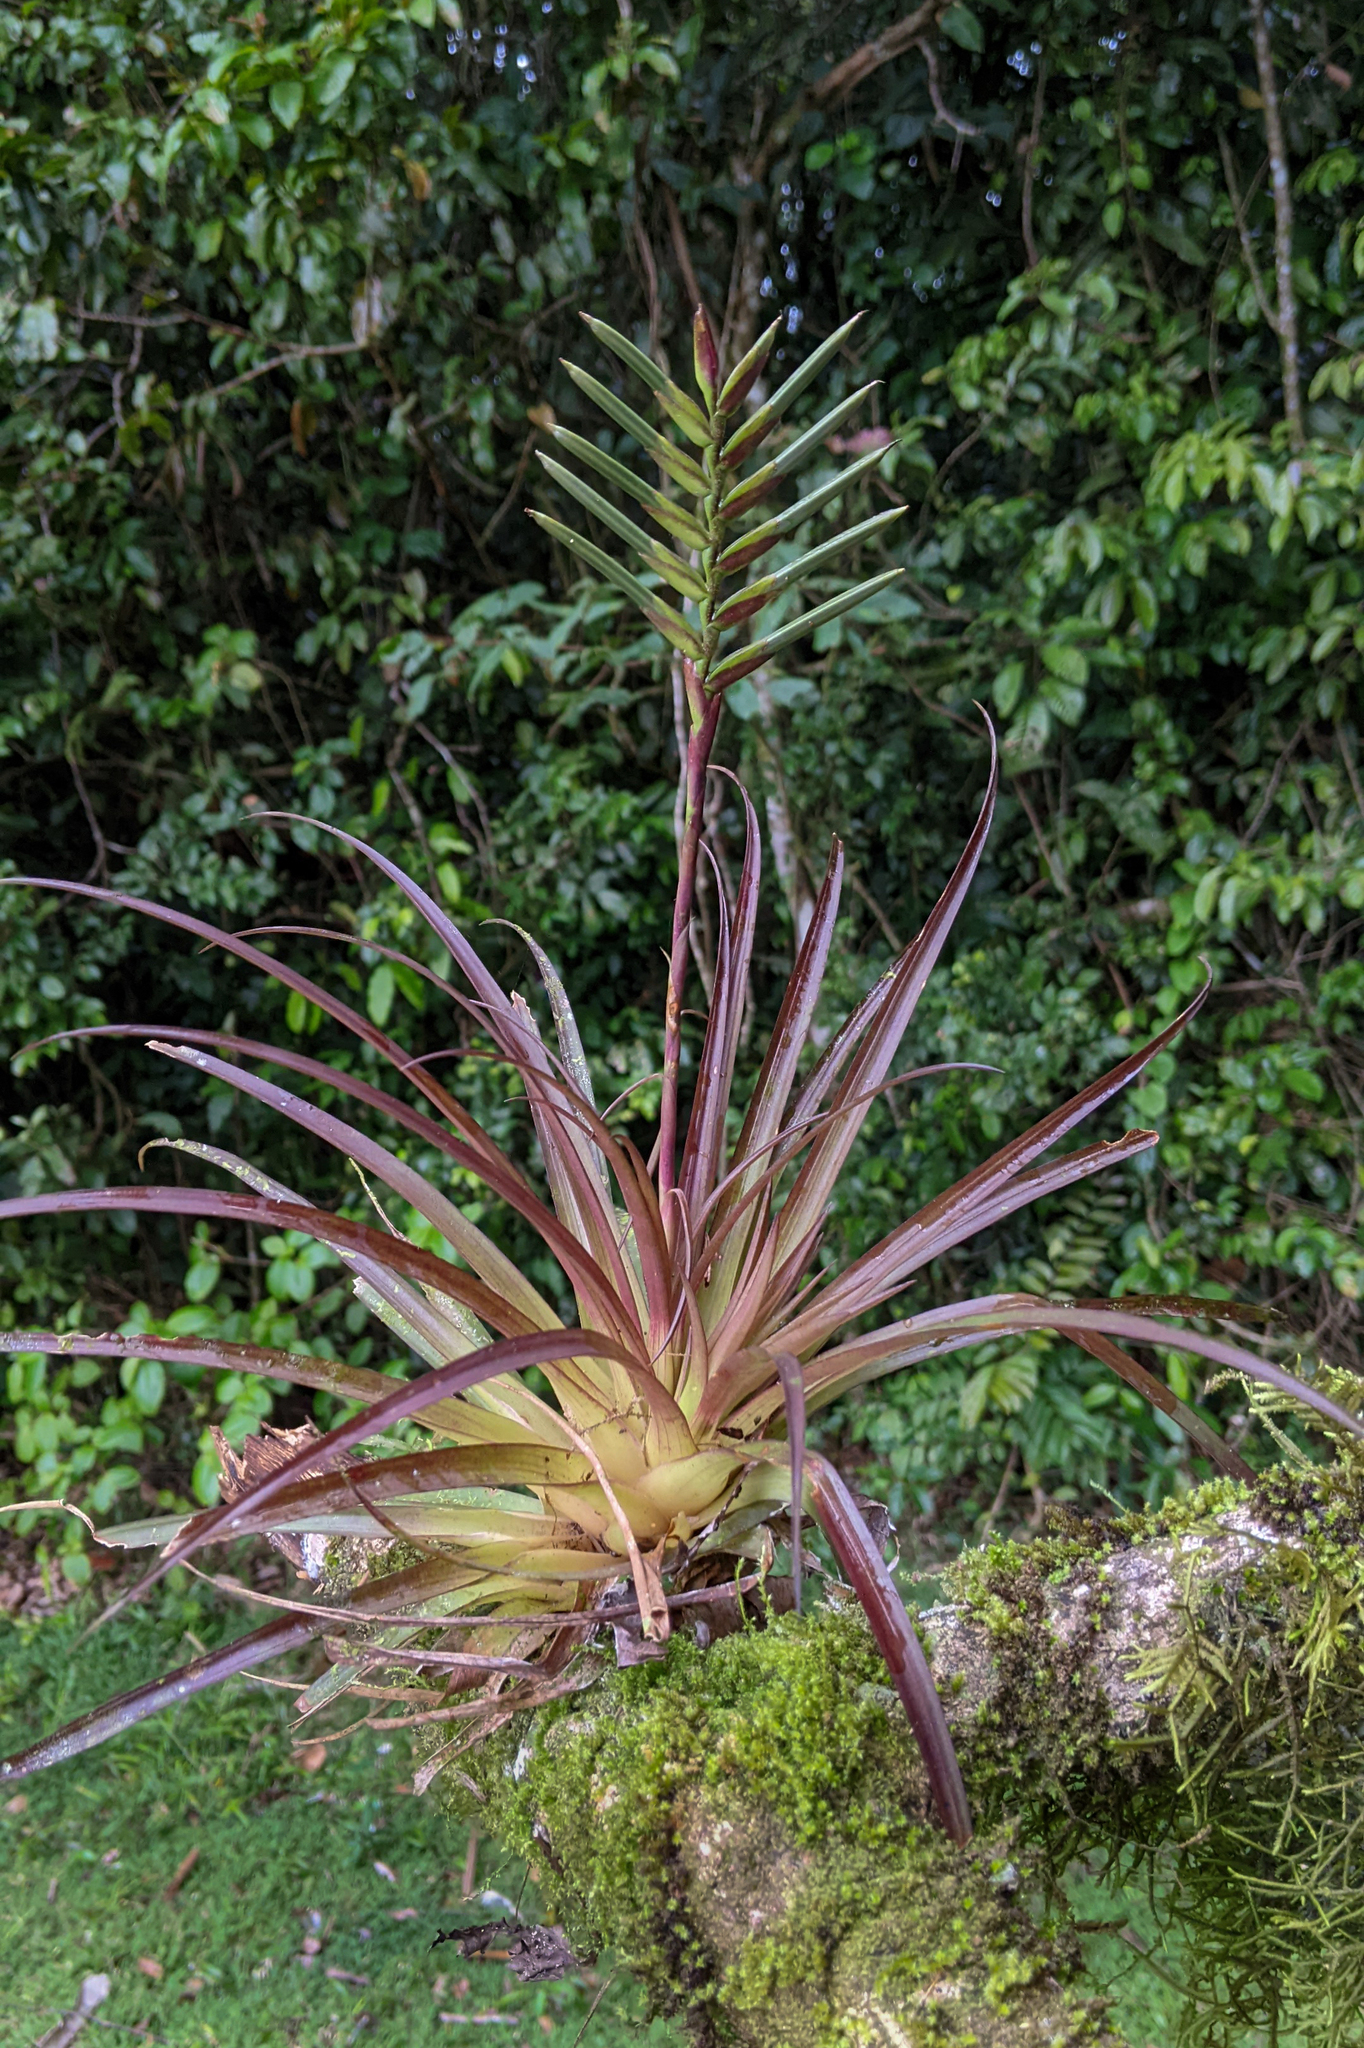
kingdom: Plantae
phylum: Tracheophyta
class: Liliopsida
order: Poales
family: Bromeliaceae
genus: Lemeltonia
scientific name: Lemeltonia monadelpha
